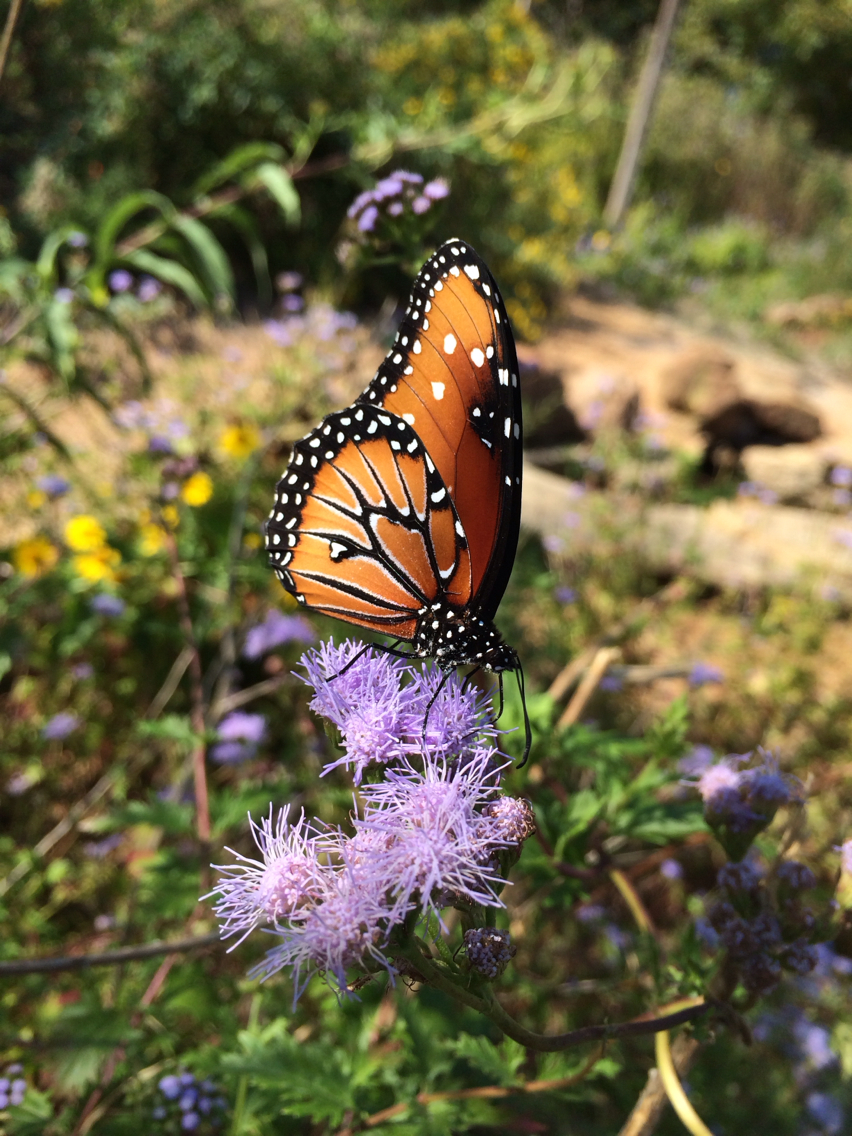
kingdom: Animalia
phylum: Arthropoda
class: Insecta
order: Lepidoptera
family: Nymphalidae
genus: Danaus
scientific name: Danaus gilippus
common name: Queen
